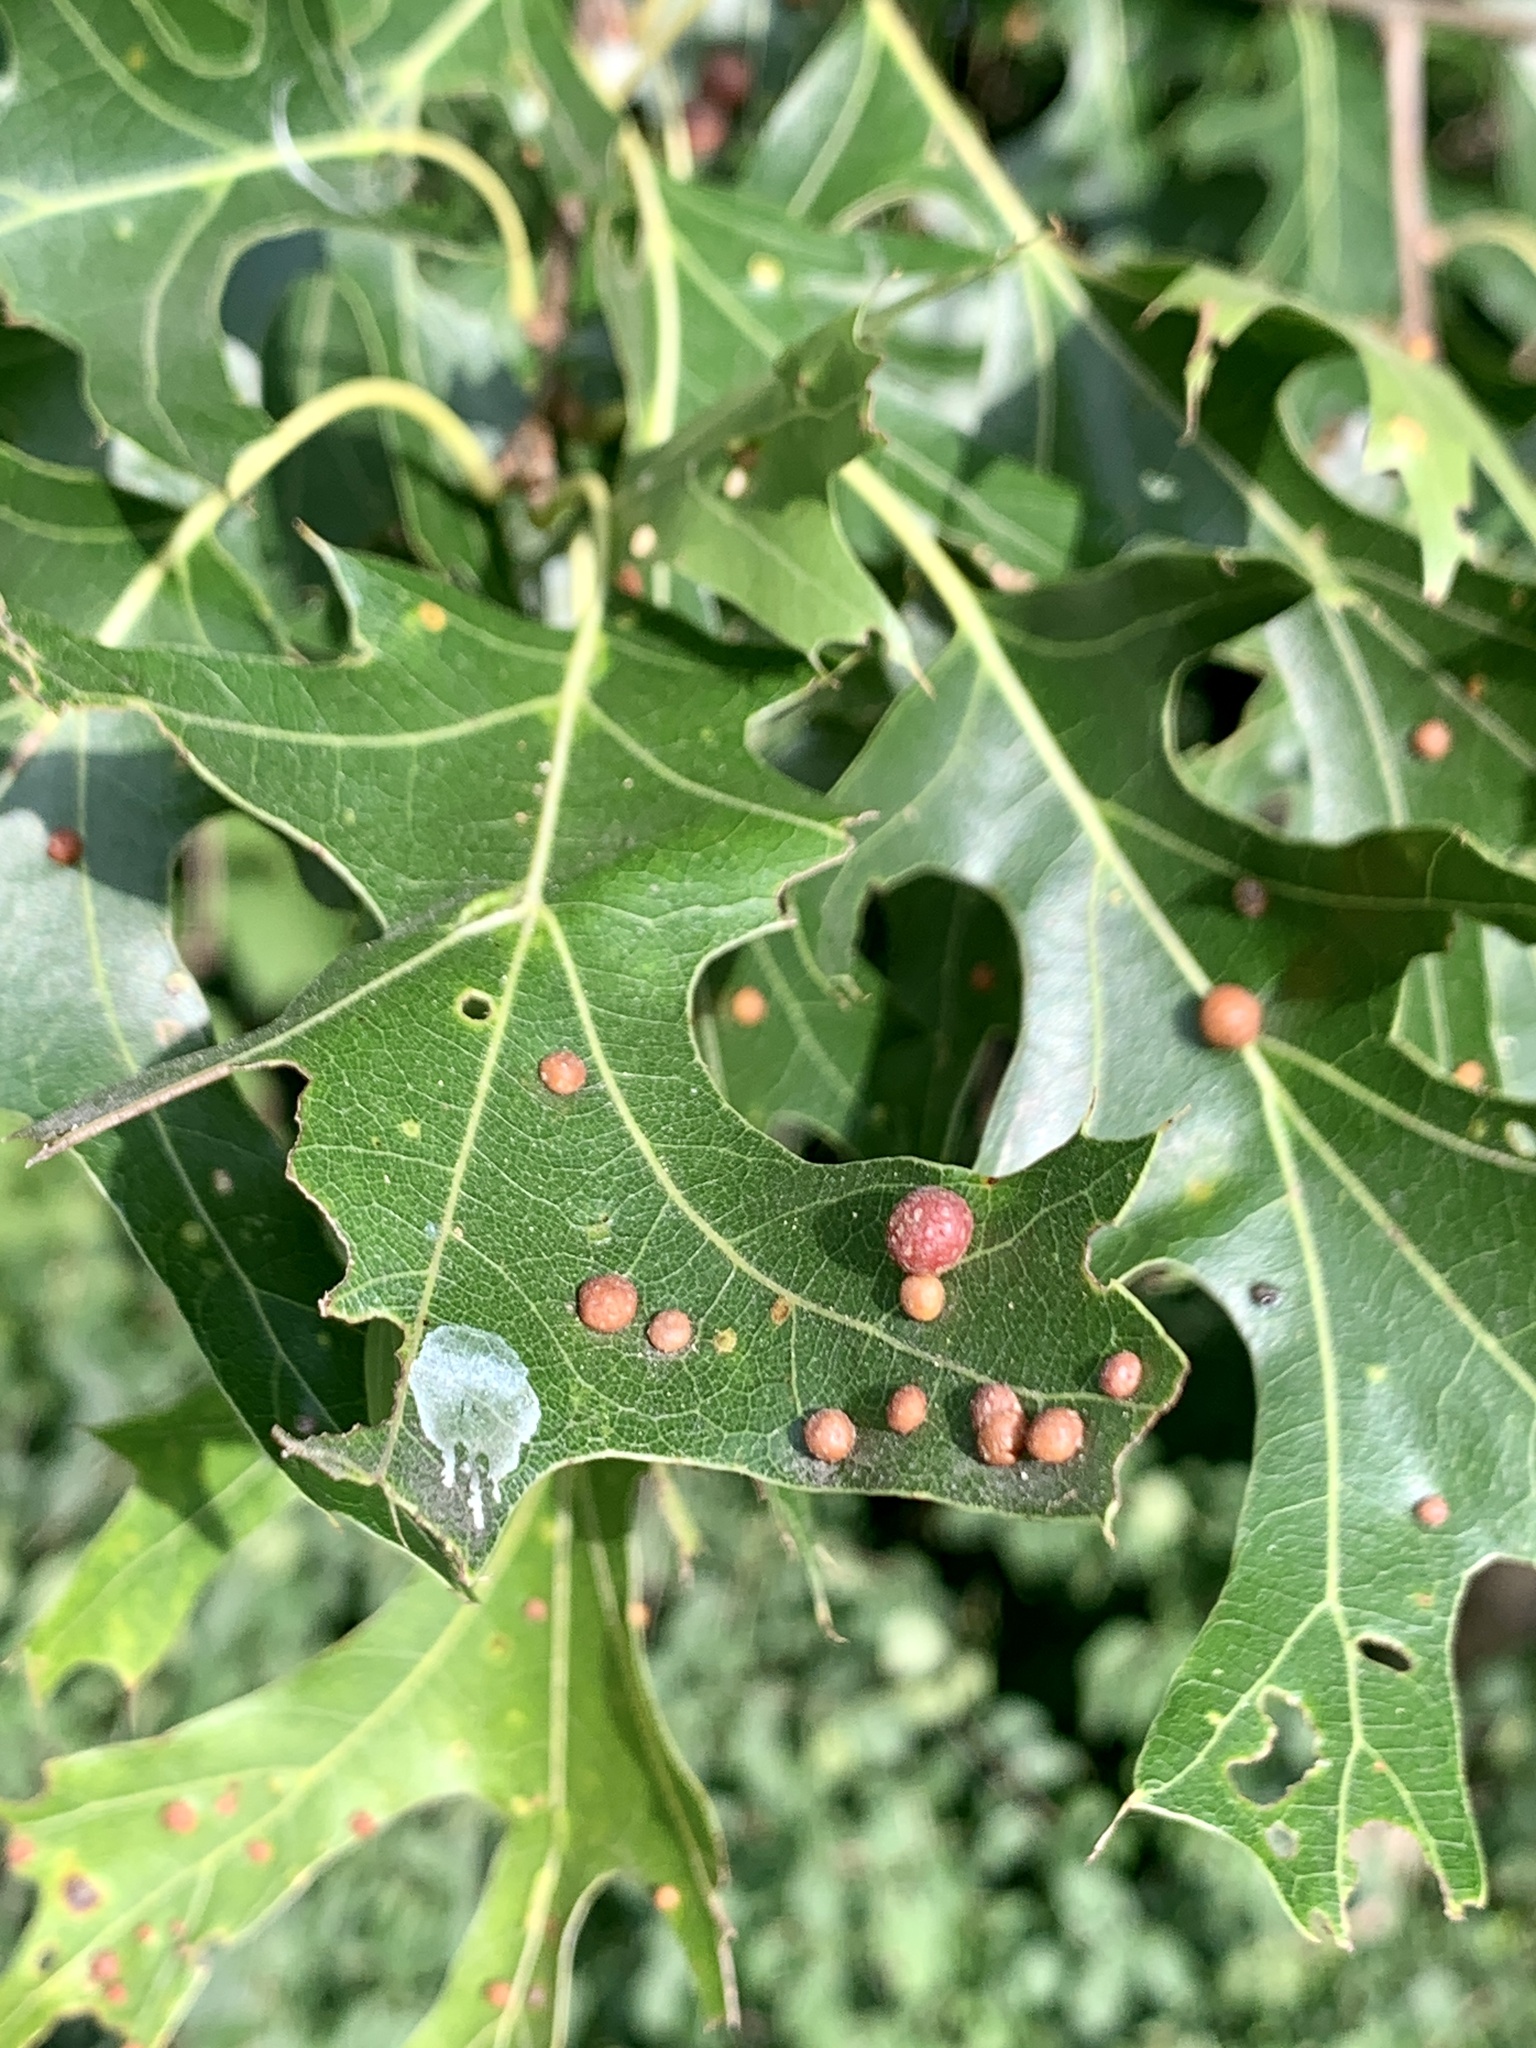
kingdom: Animalia
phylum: Arthropoda
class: Insecta
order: Diptera
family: Cecidomyiidae
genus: Polystepha
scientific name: Polystepha pilulae
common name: Oak leaf gall midge
